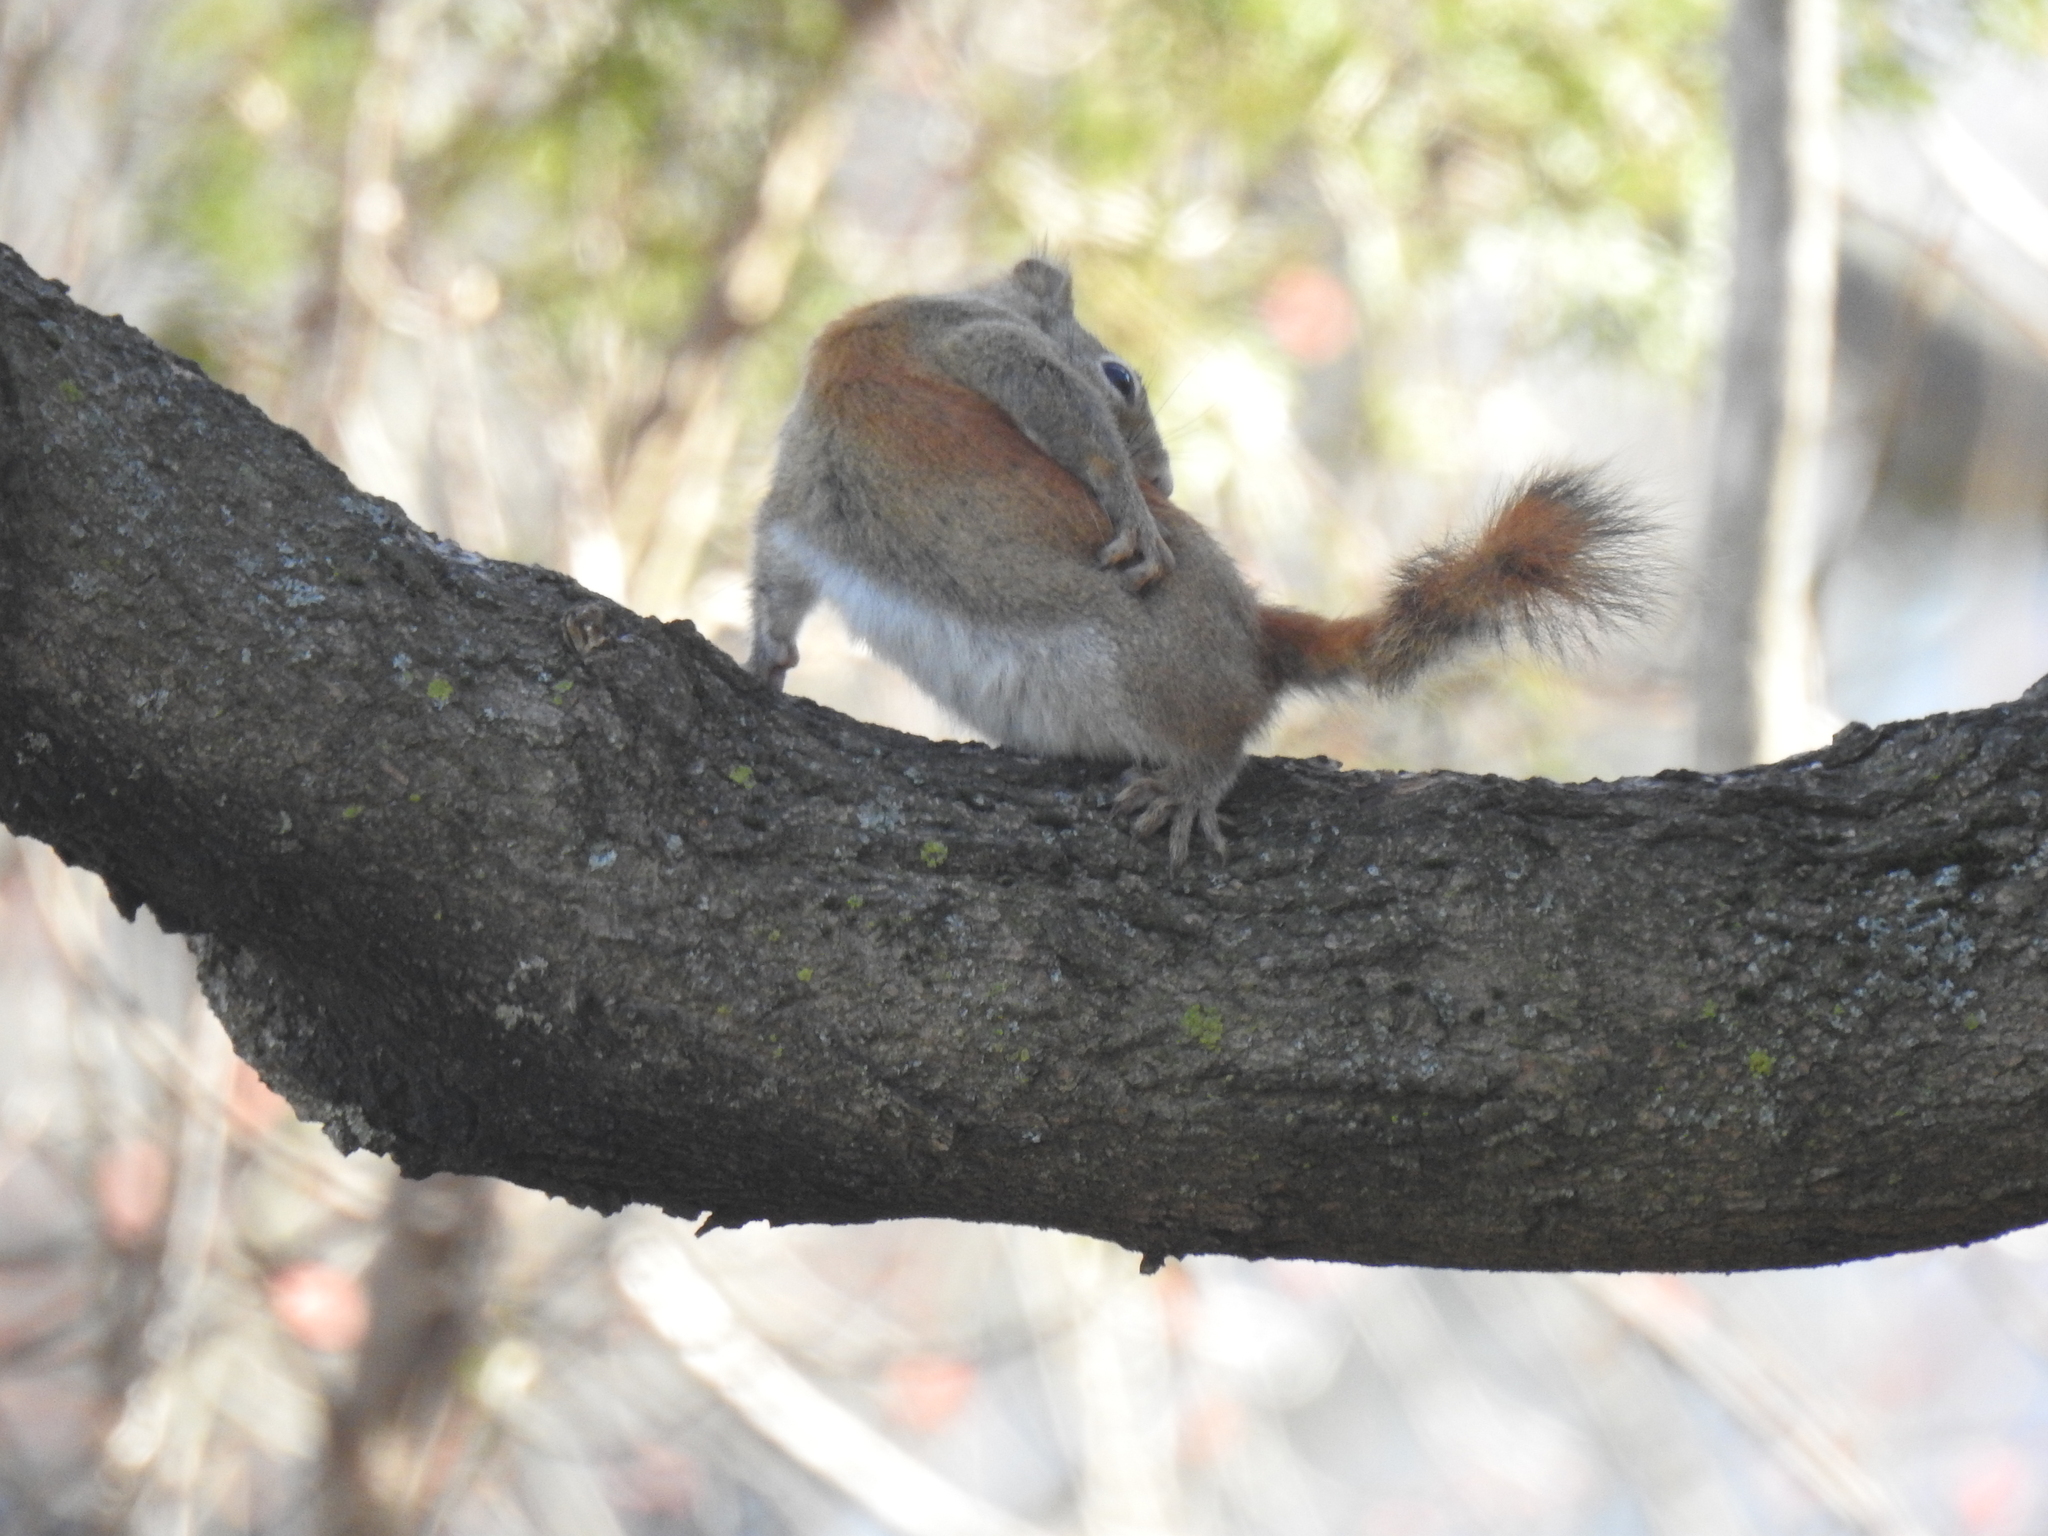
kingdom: Animalia
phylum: Chordata
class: Mammalia
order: Rodentia
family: Sciuridae
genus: Tamiasciurus
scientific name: Tamiasciurus hudsonicus
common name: Red squirrel
